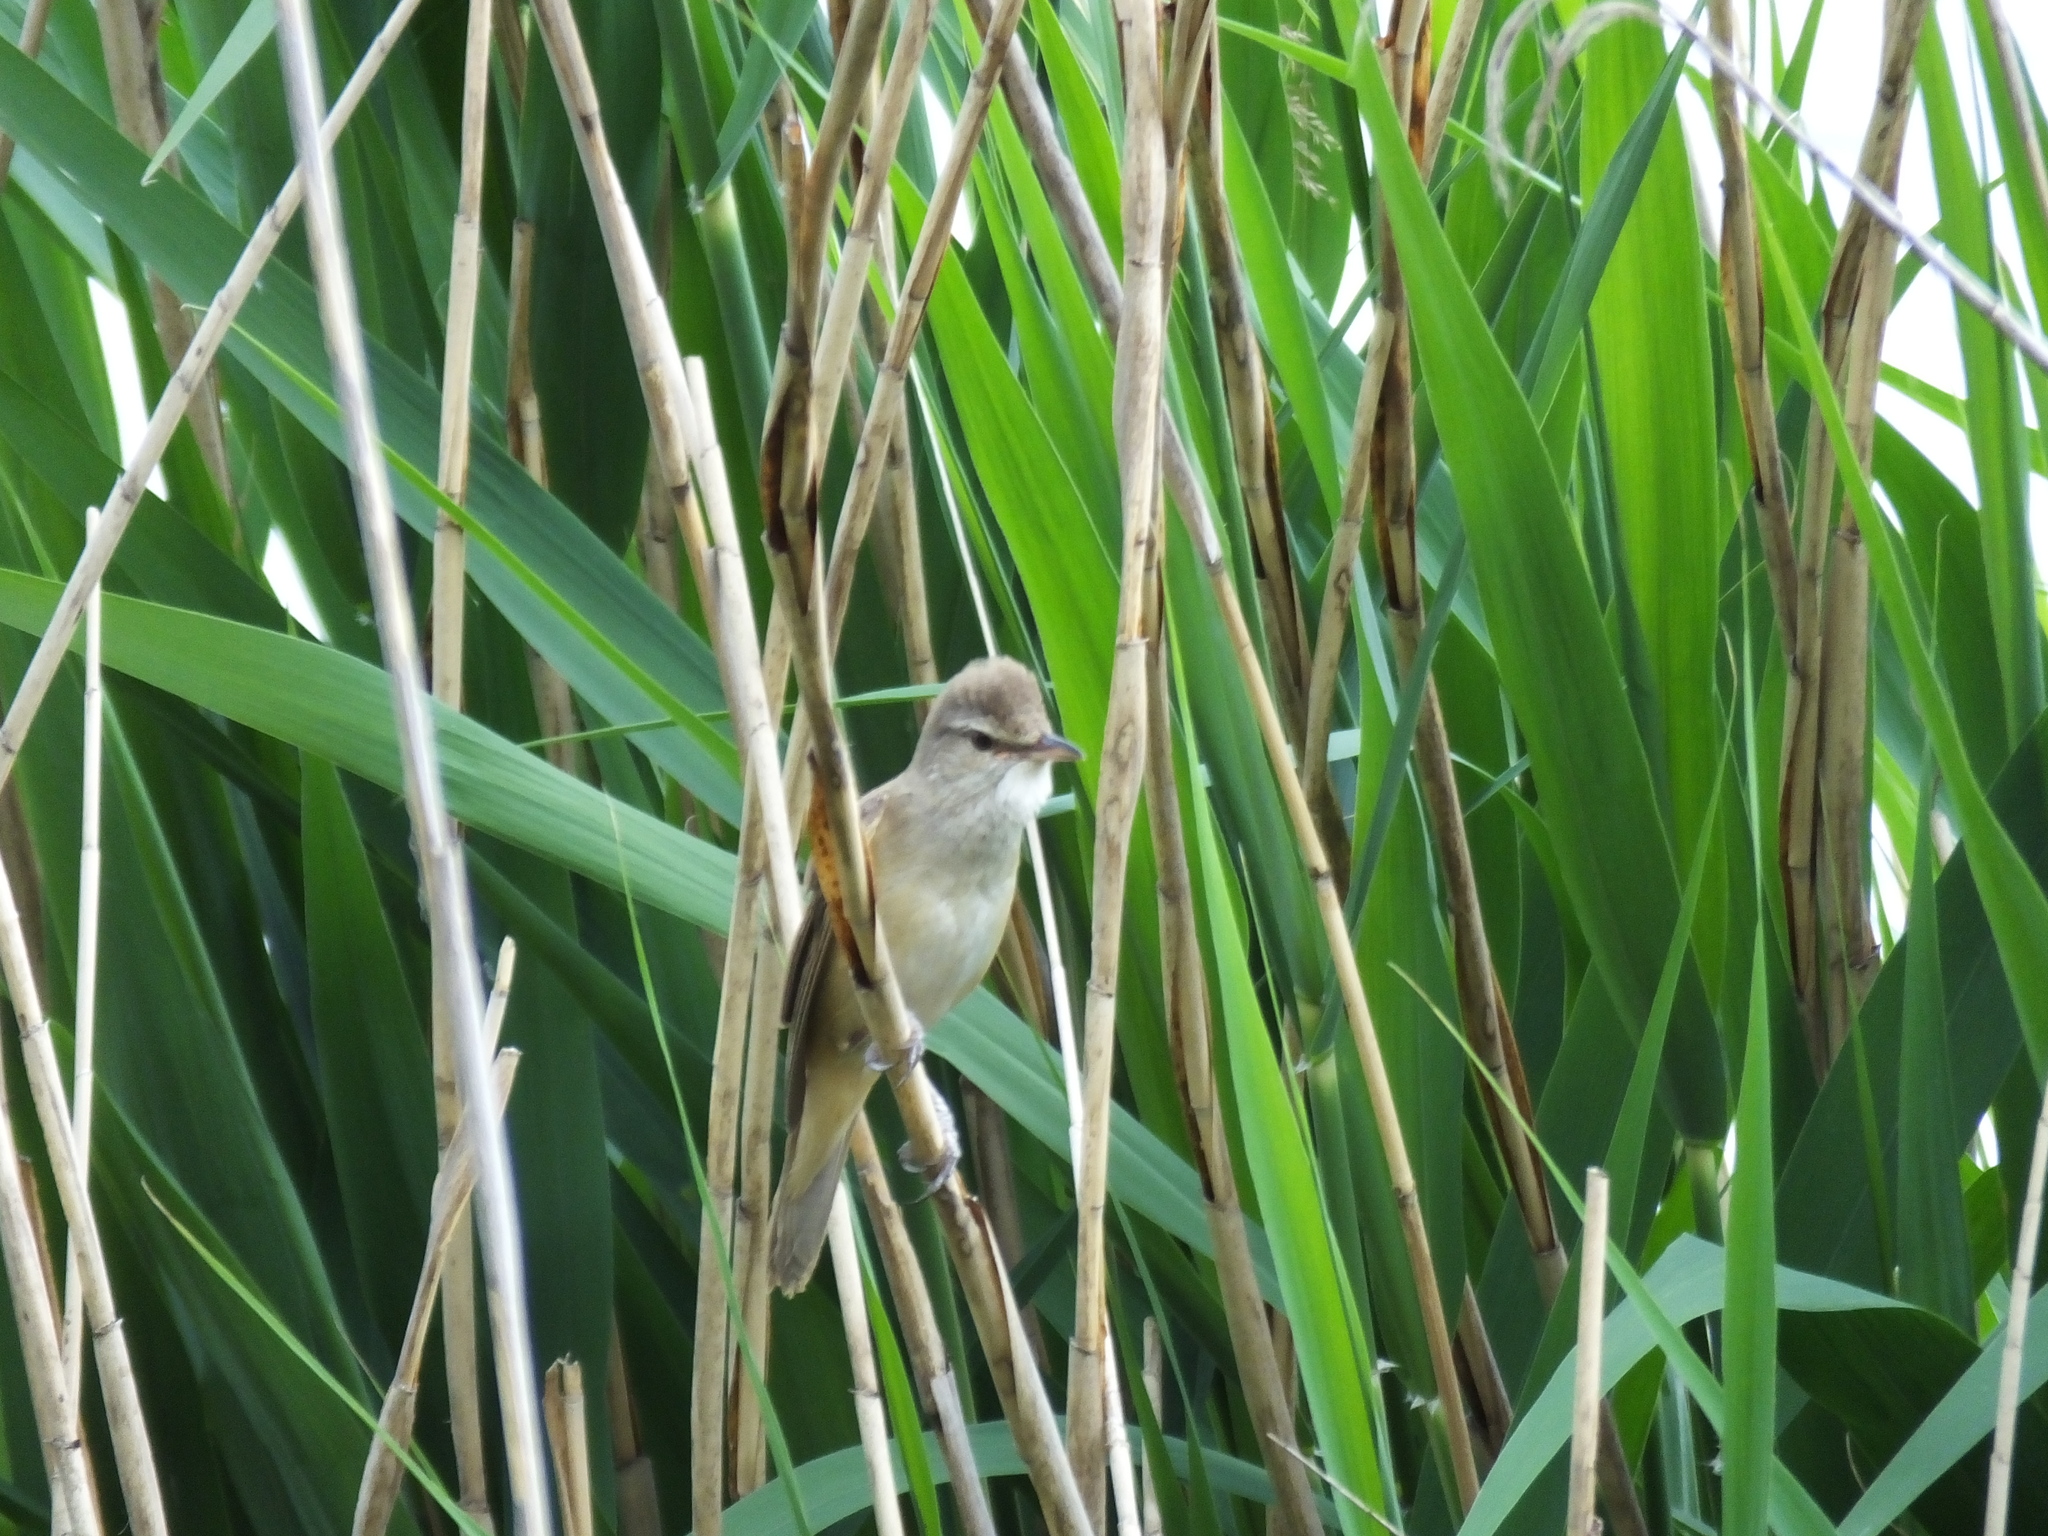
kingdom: Animalia
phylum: Chordata
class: Aves
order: Passeriformes
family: Acrocephalidae
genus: Acrocephalus
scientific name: Acrocephalus arundinaceus
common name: Great reed warbler
